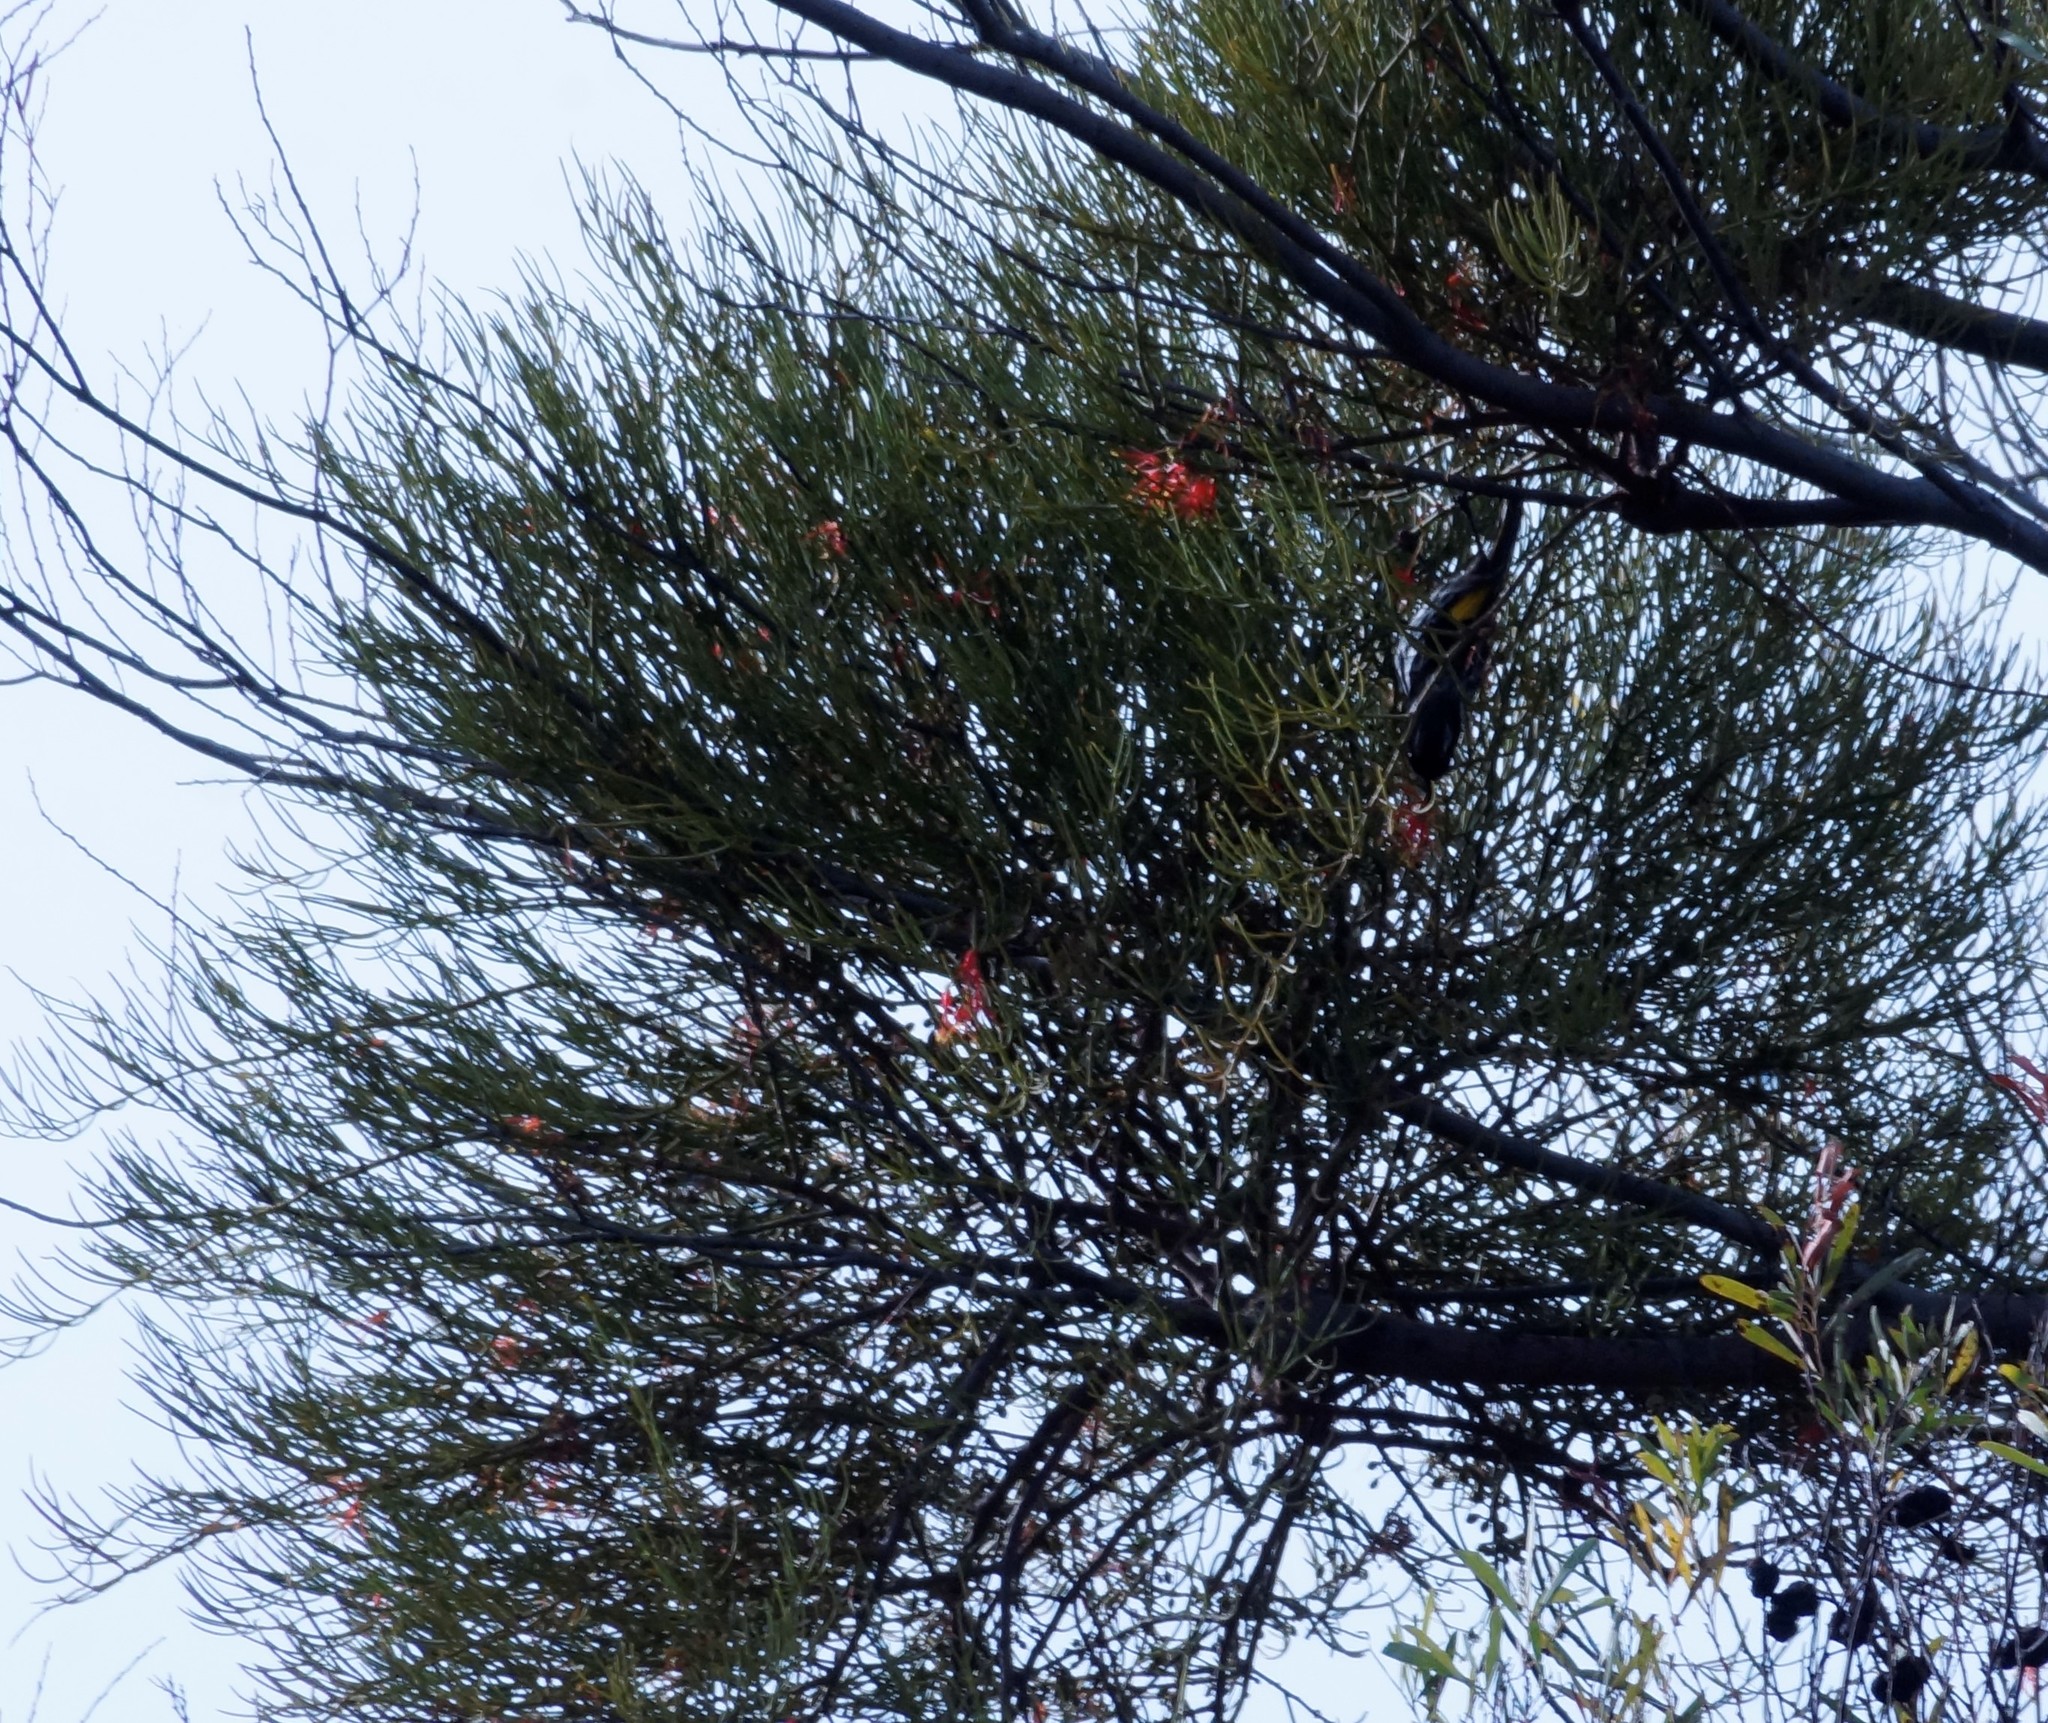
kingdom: Plantae
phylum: Tracheophyta
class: Magnoliopsida
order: Santalales
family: Loranthaceae
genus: Amyema
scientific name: Amyema preissii
